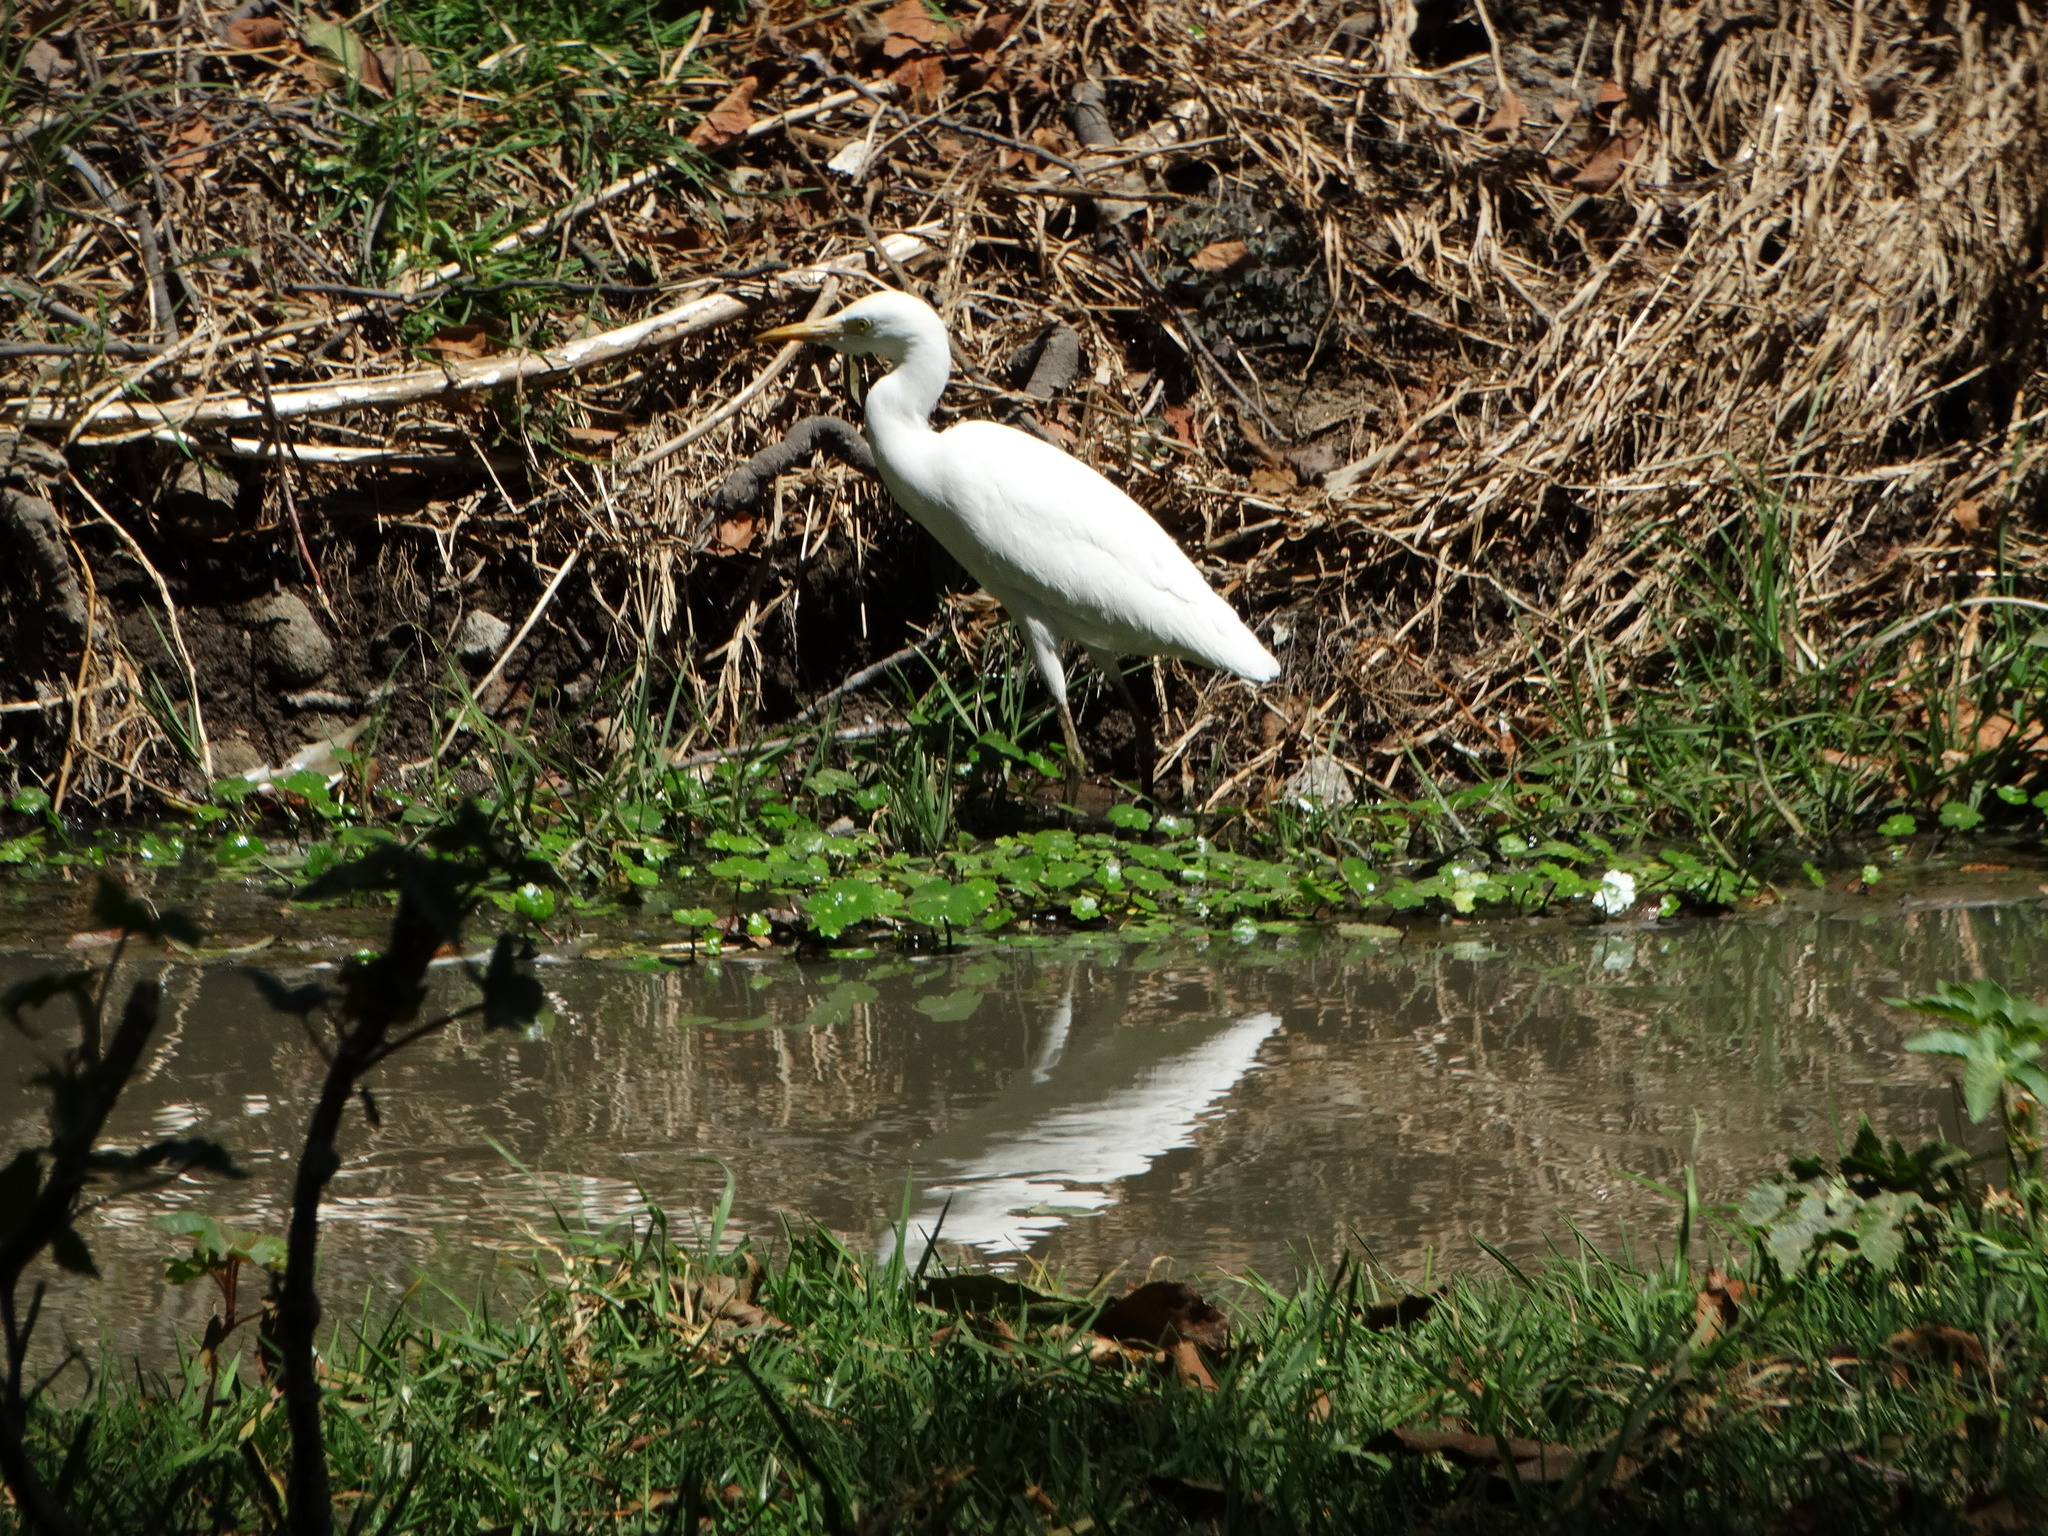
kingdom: Animalia
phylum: Chordata
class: Aves
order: Pelecaniformes
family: Ardeidae
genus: Bubulcus
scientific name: Bubulcus ibis
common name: Cattle egret
